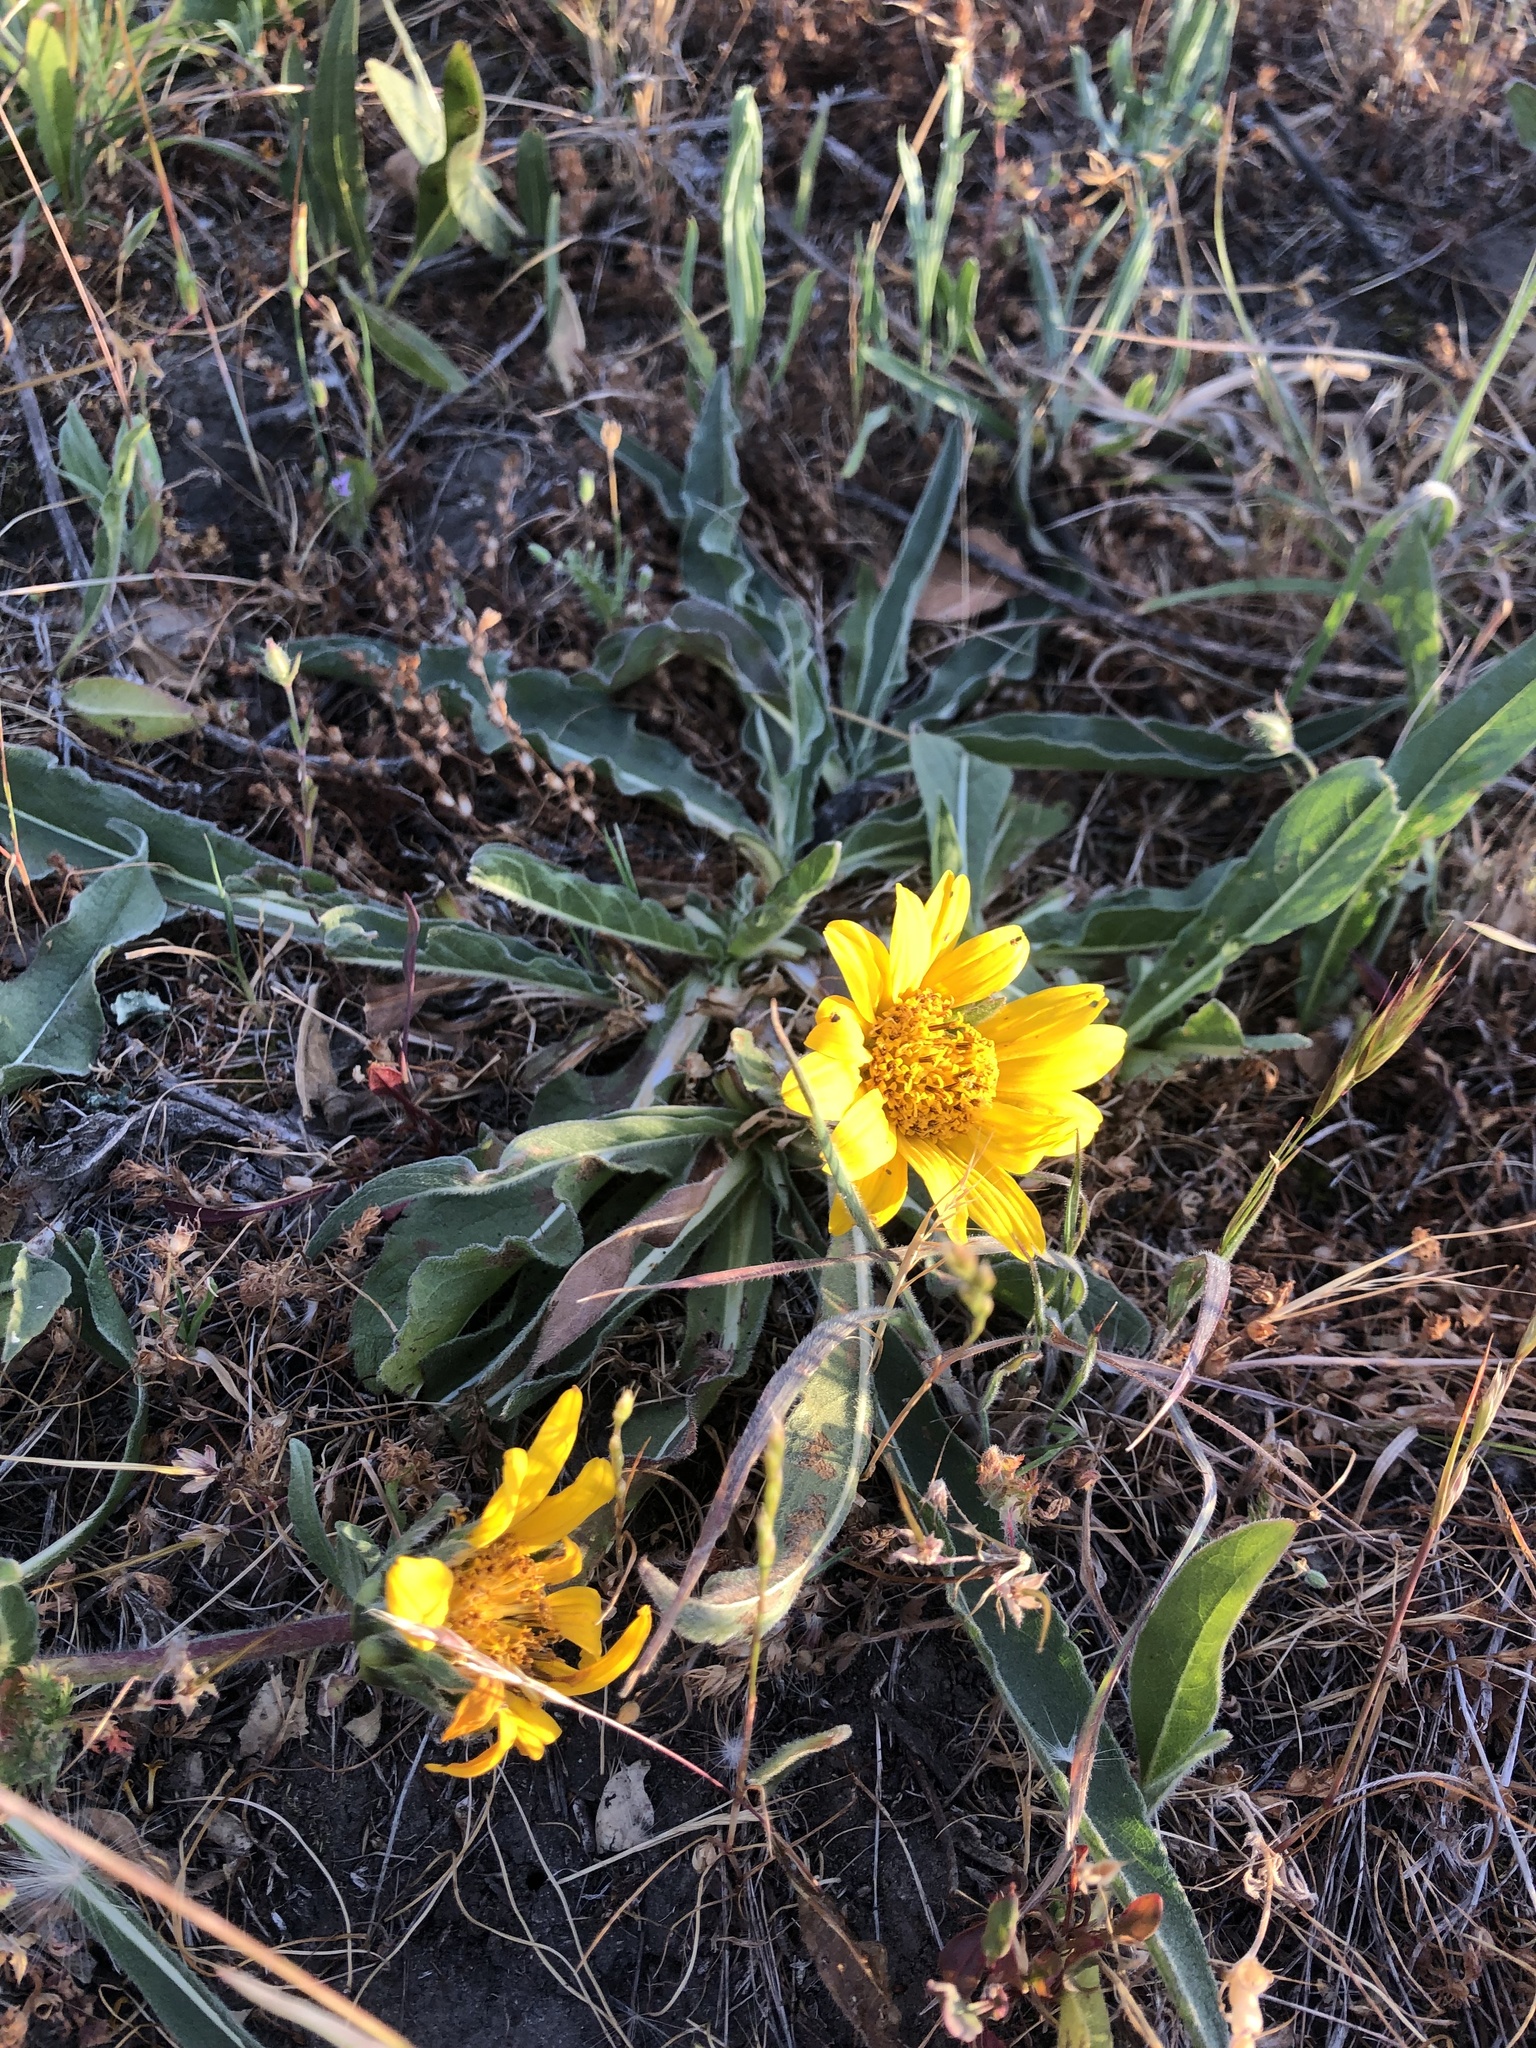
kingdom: Plantae
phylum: Tracheophyta
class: Magnoliopsida
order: Asterales
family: Asteraceae
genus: Wyethia
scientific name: Wyethia angustifolia
